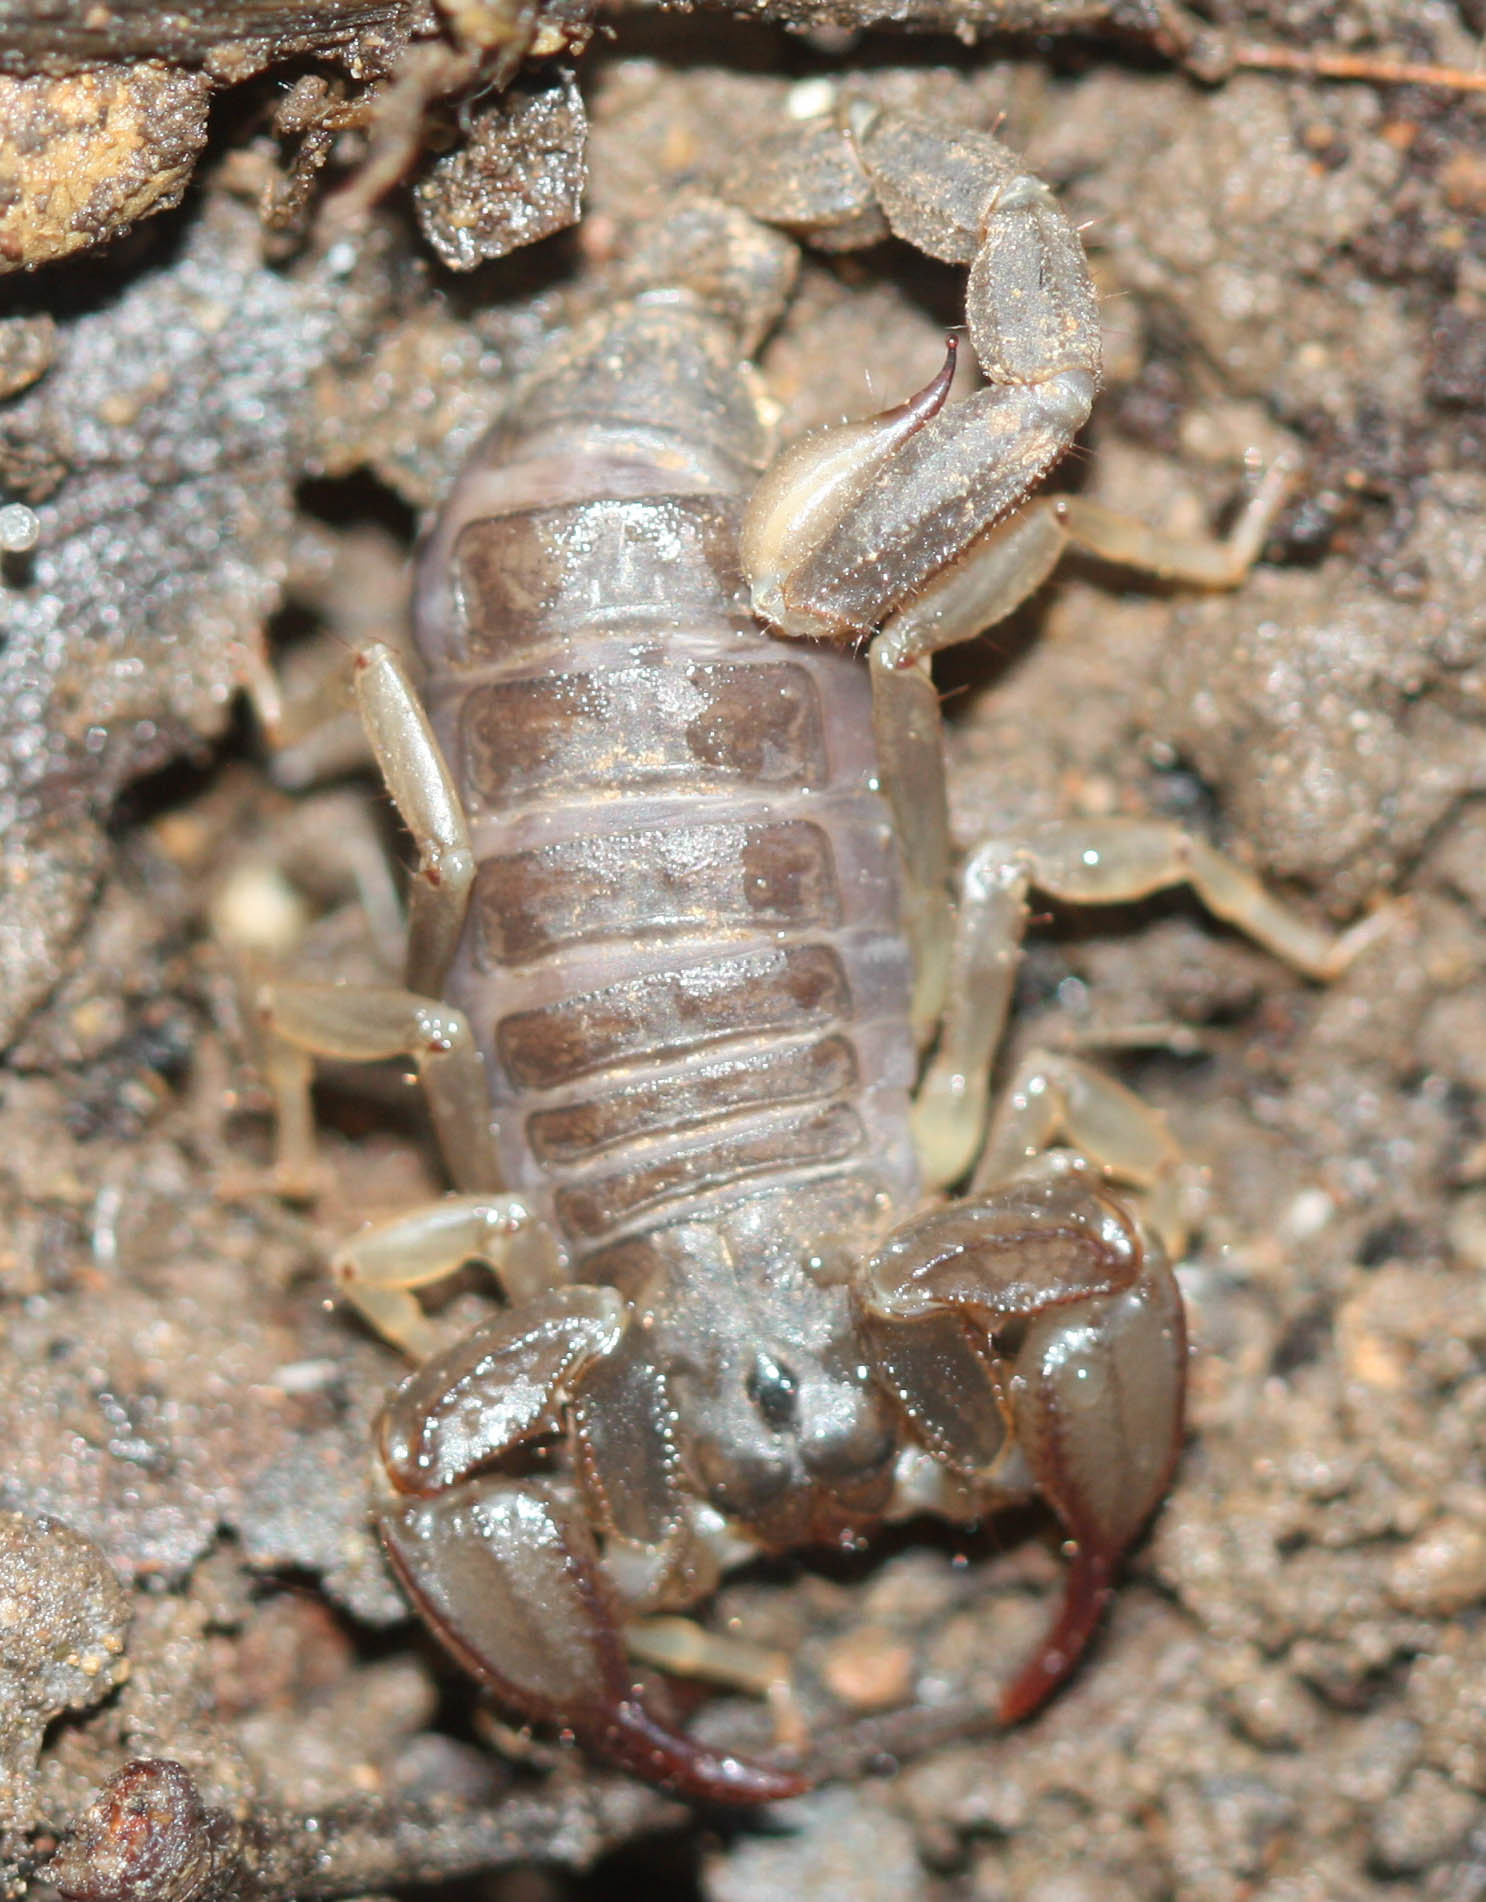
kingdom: Animalia
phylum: Arthropoda
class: Arachnida
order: Scorpiones
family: Chactidae
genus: Uroctonus
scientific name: Uroctonus mordax
